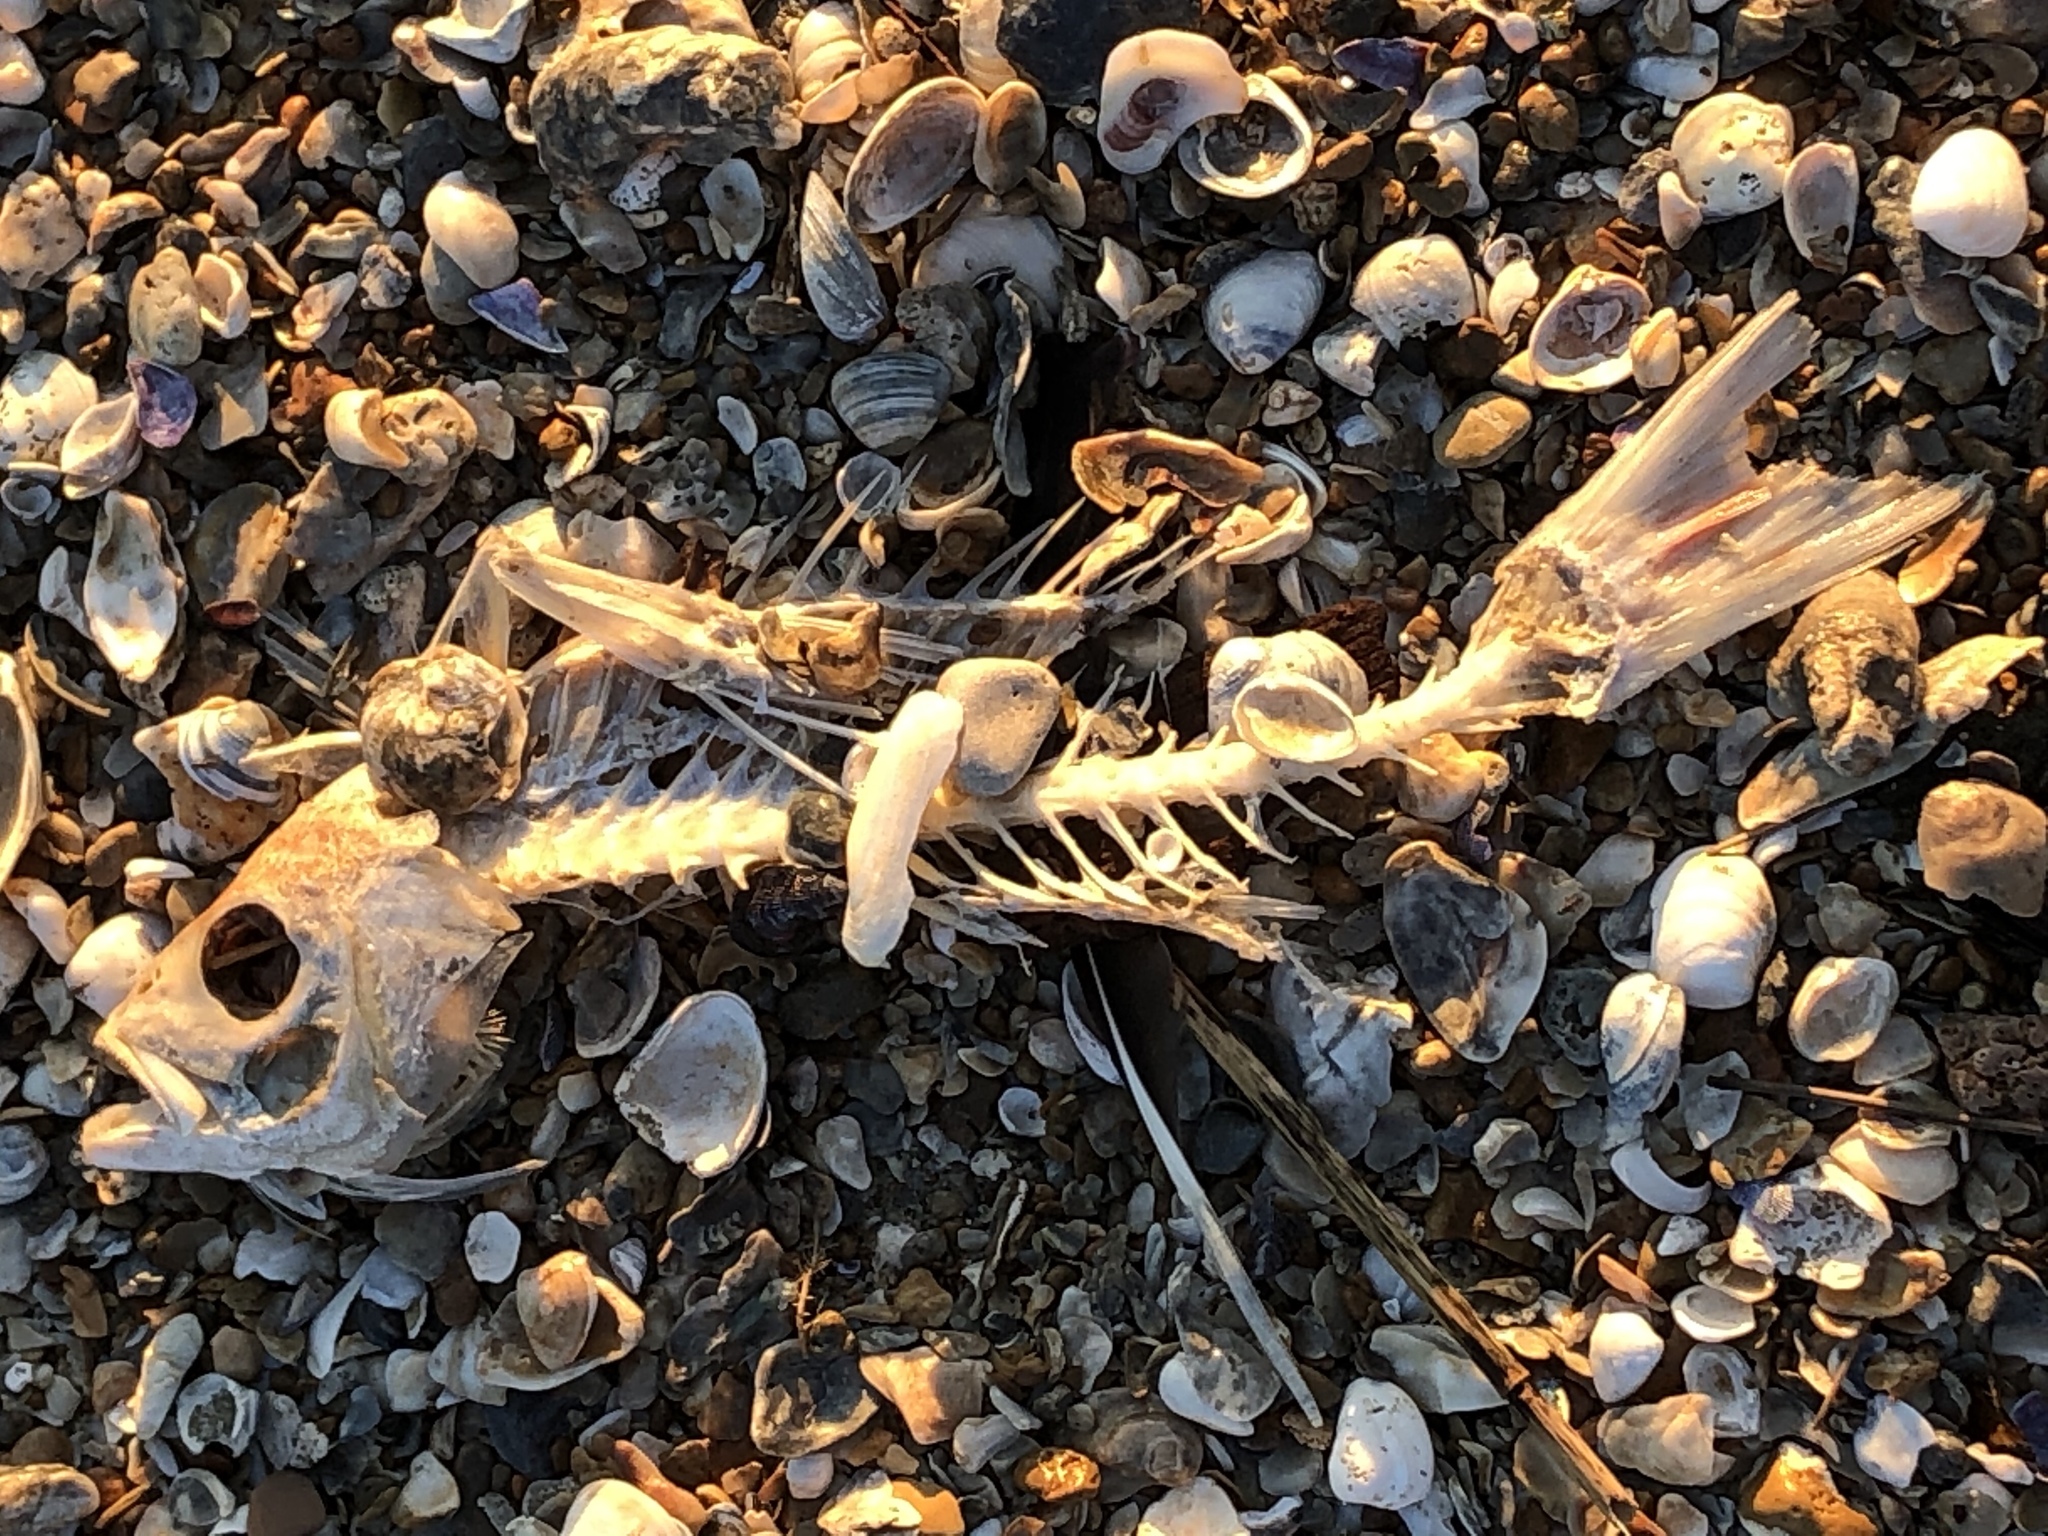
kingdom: Animalia
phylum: Chordata
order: Perciformes
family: Lutjanidae
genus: Rhomboplites
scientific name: Rhomboplites aurorubens
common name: Vermillion snapper
